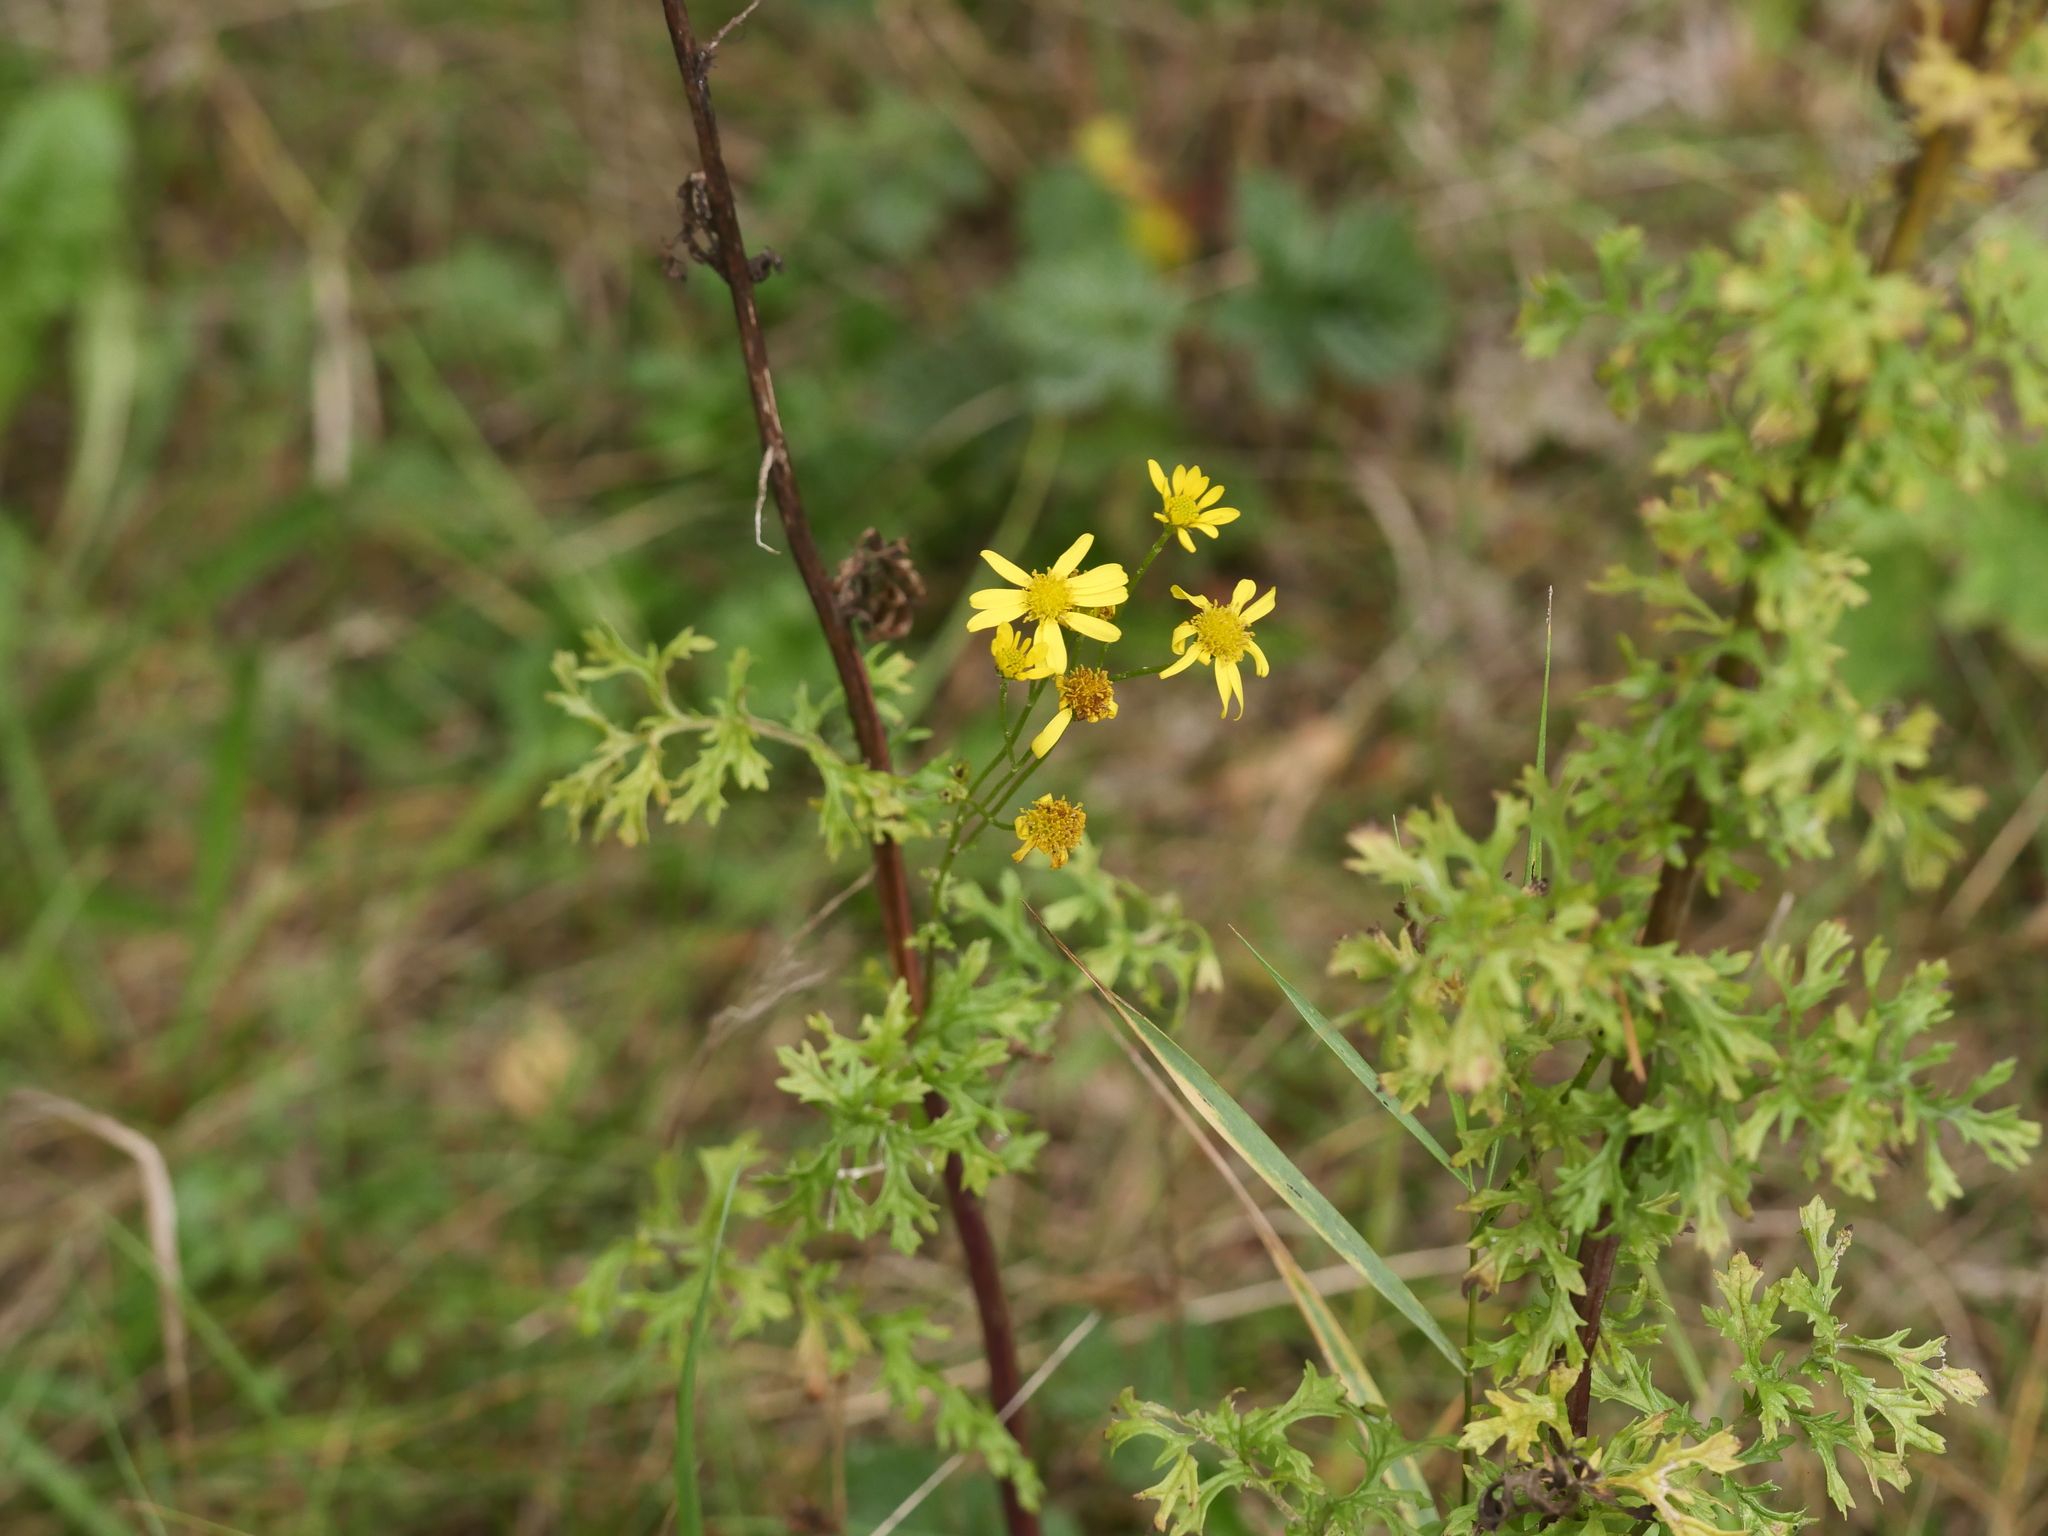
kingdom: Plantae
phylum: Tracheophyta
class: Magnoliopsida
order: Asterales
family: Asteraceae
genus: Jacobaea
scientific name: Jacobaea vulgaris
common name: Stinking willie
